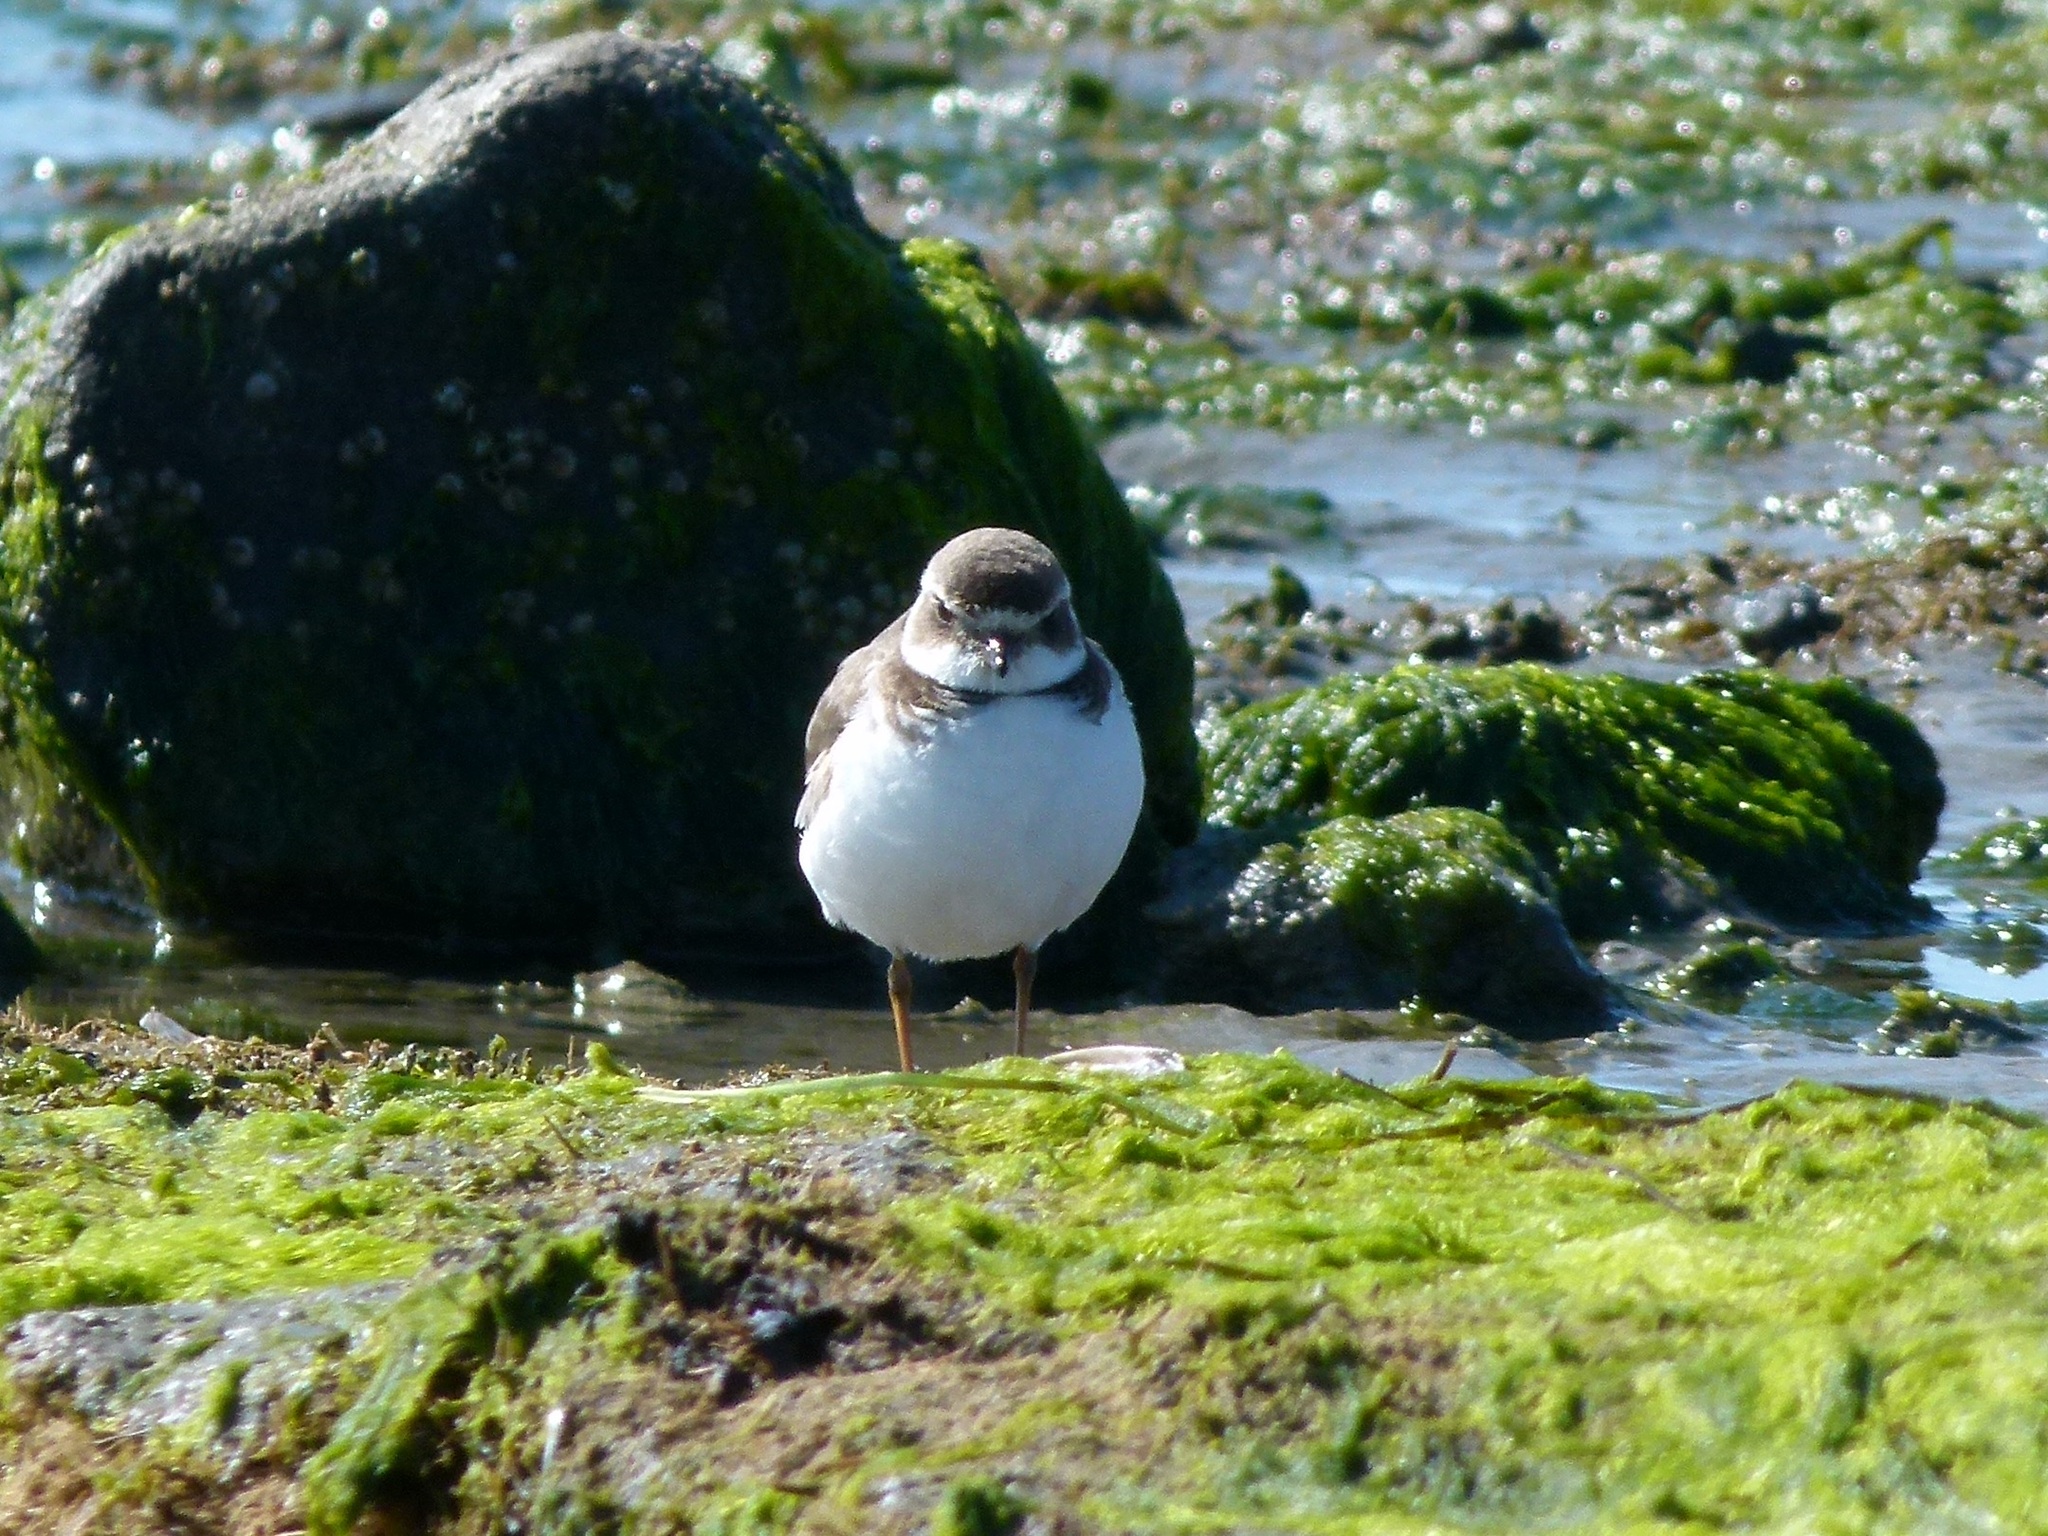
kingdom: Animalia
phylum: Chordata
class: Aves
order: Charadriiformes
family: Charadriidae
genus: Charadrius
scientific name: Charadrius semipalmatus
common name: Semipalmated plover
